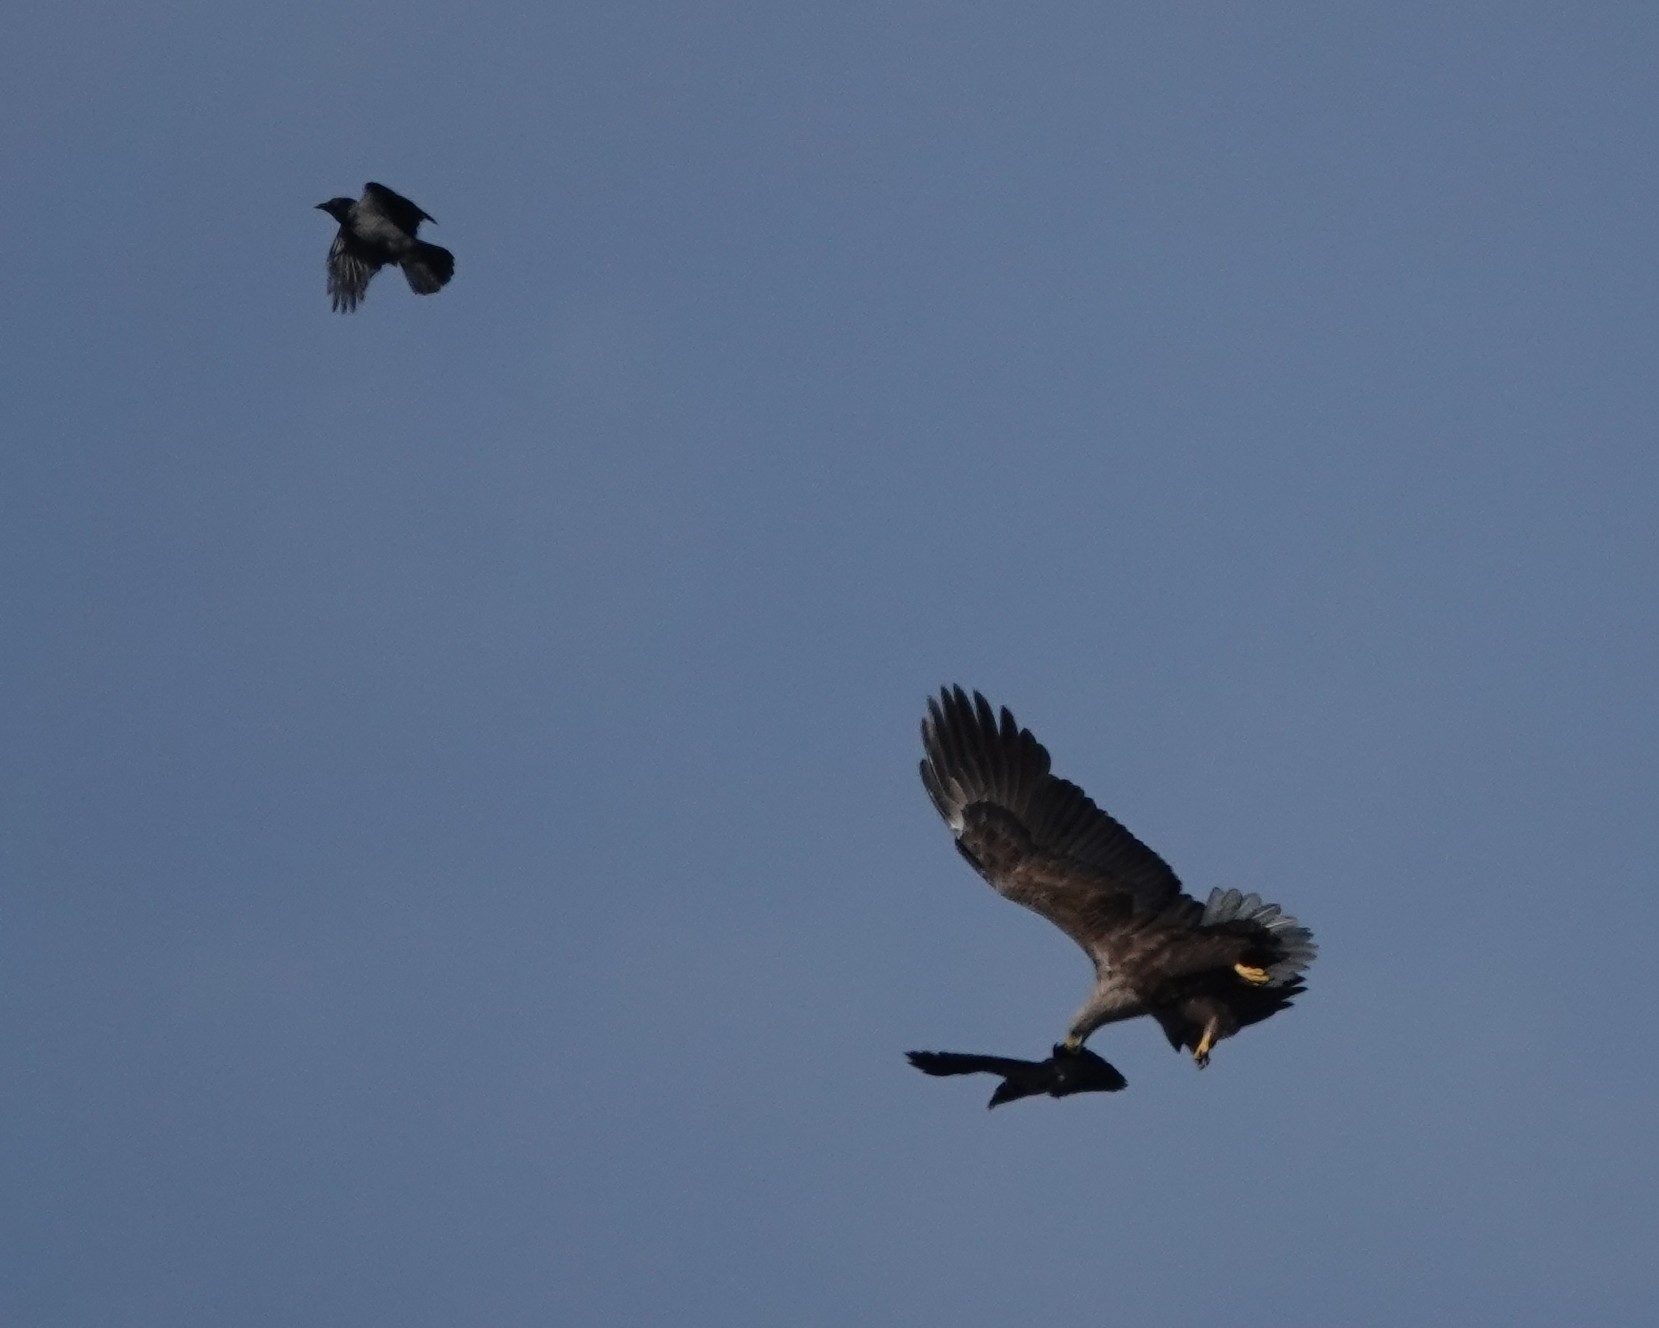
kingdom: Animalia
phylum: Chordata
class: Aves
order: Accipitriformes
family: Accipitridae
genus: Haliaeetus
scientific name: Haliaeetus albicilla
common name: White-tailed eagle
